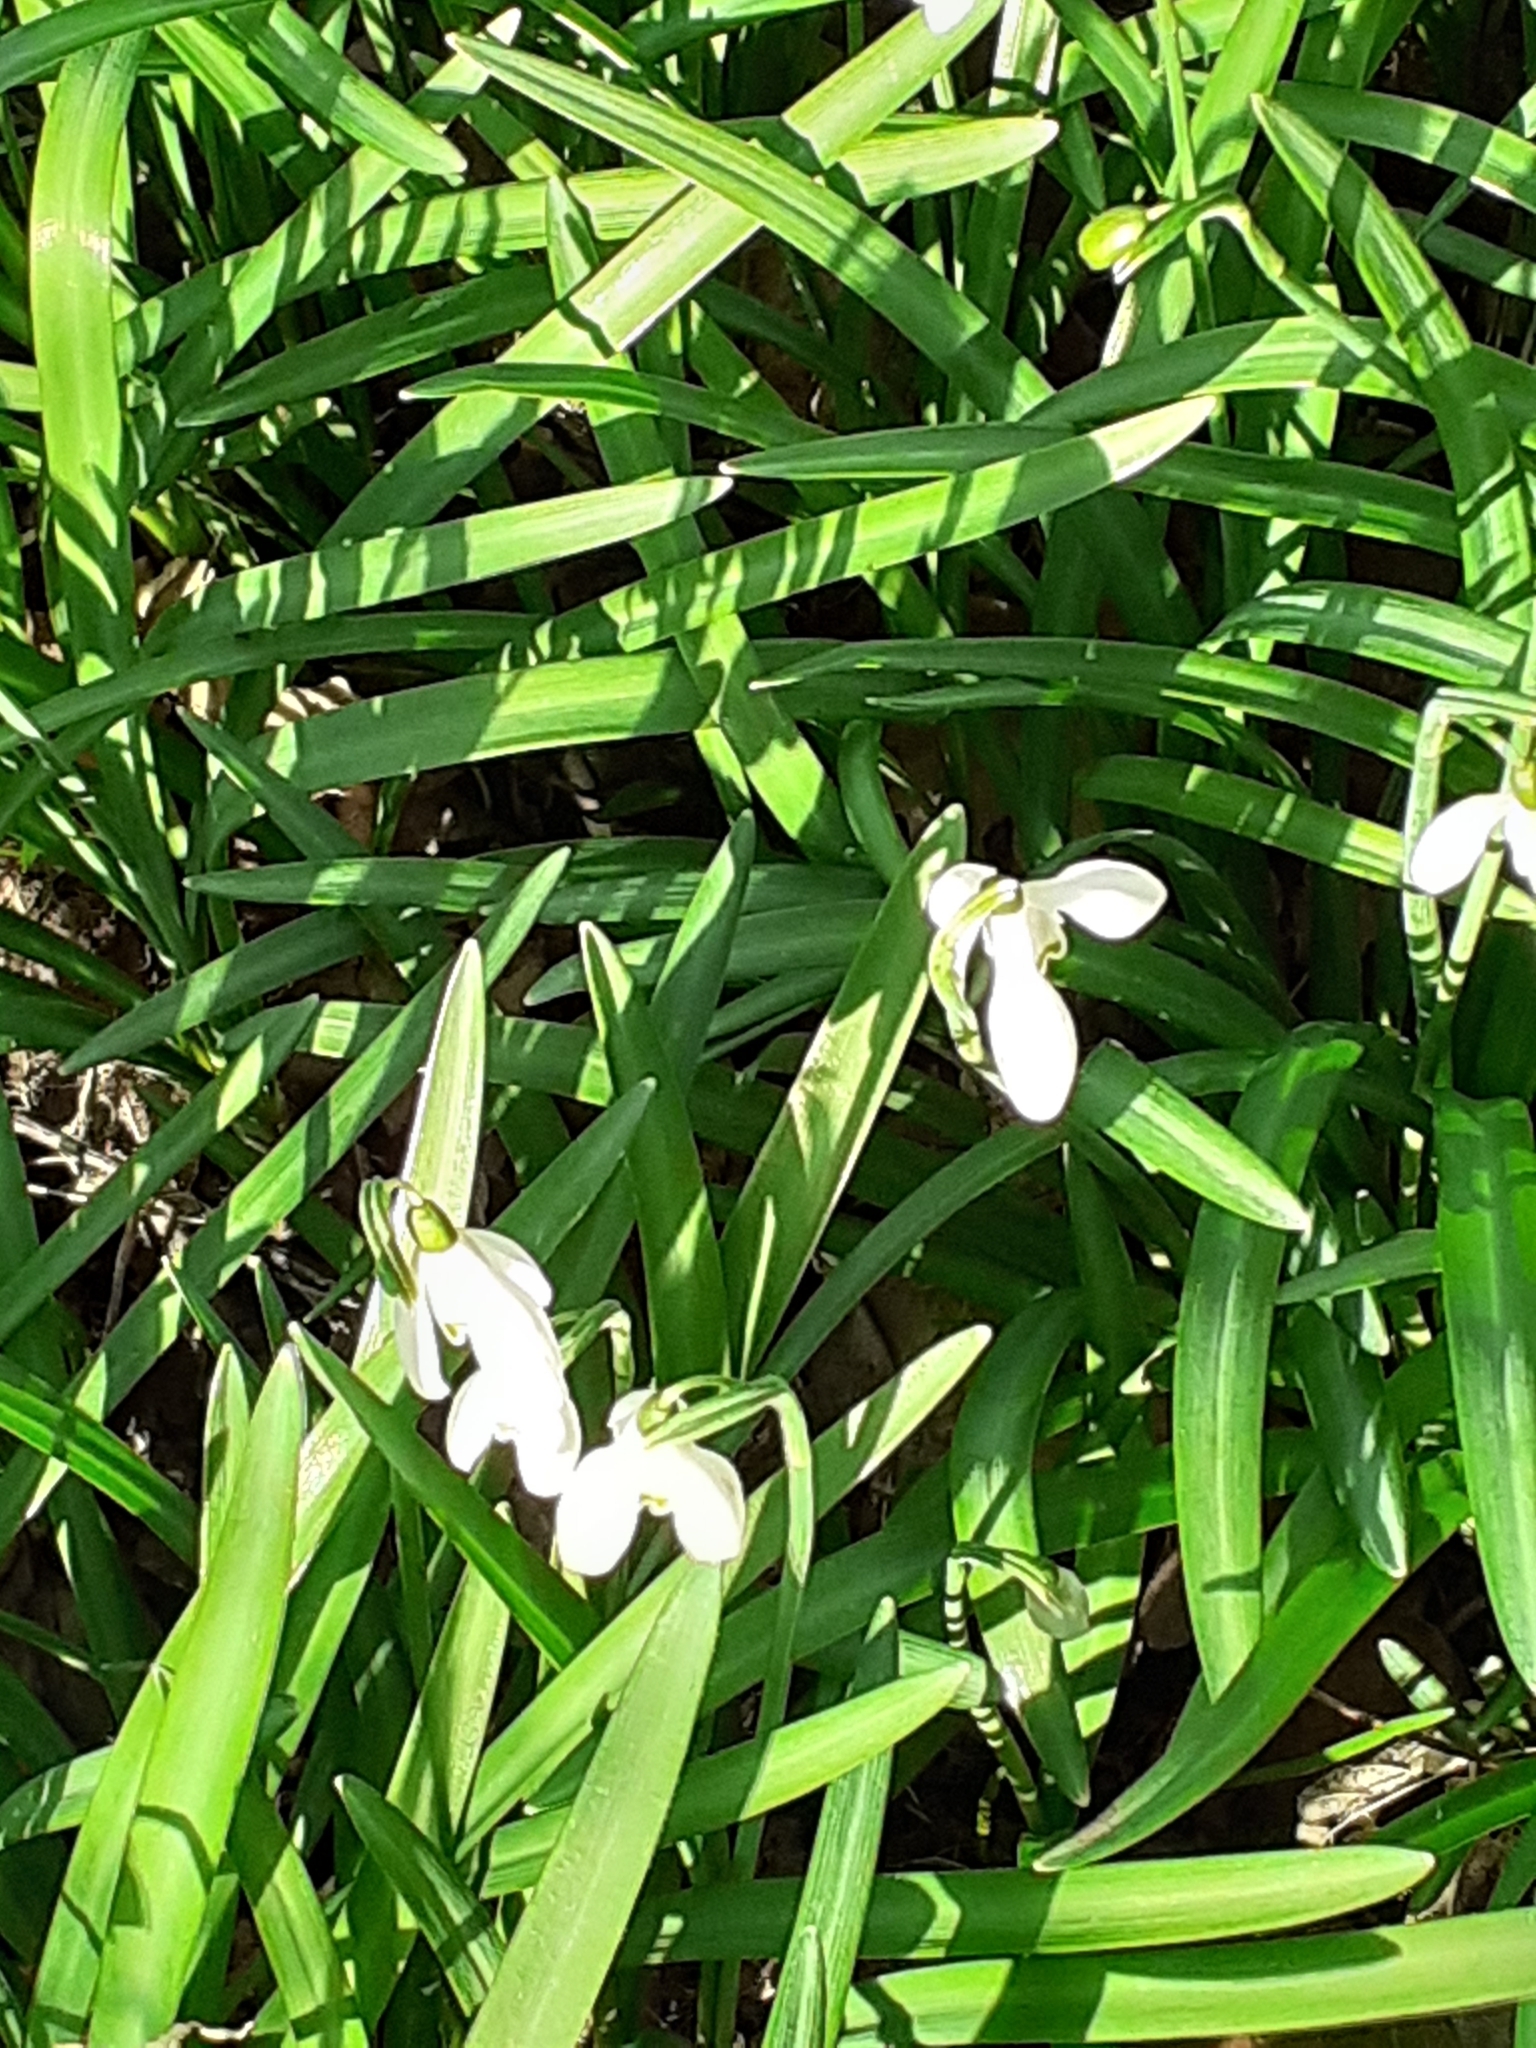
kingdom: Plantae
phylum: Tracheophyta
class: Liliopsida
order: Asparagales
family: Amaryllidaceae
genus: Galanthus
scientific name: Galanthus nivalis
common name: Snowdrop
